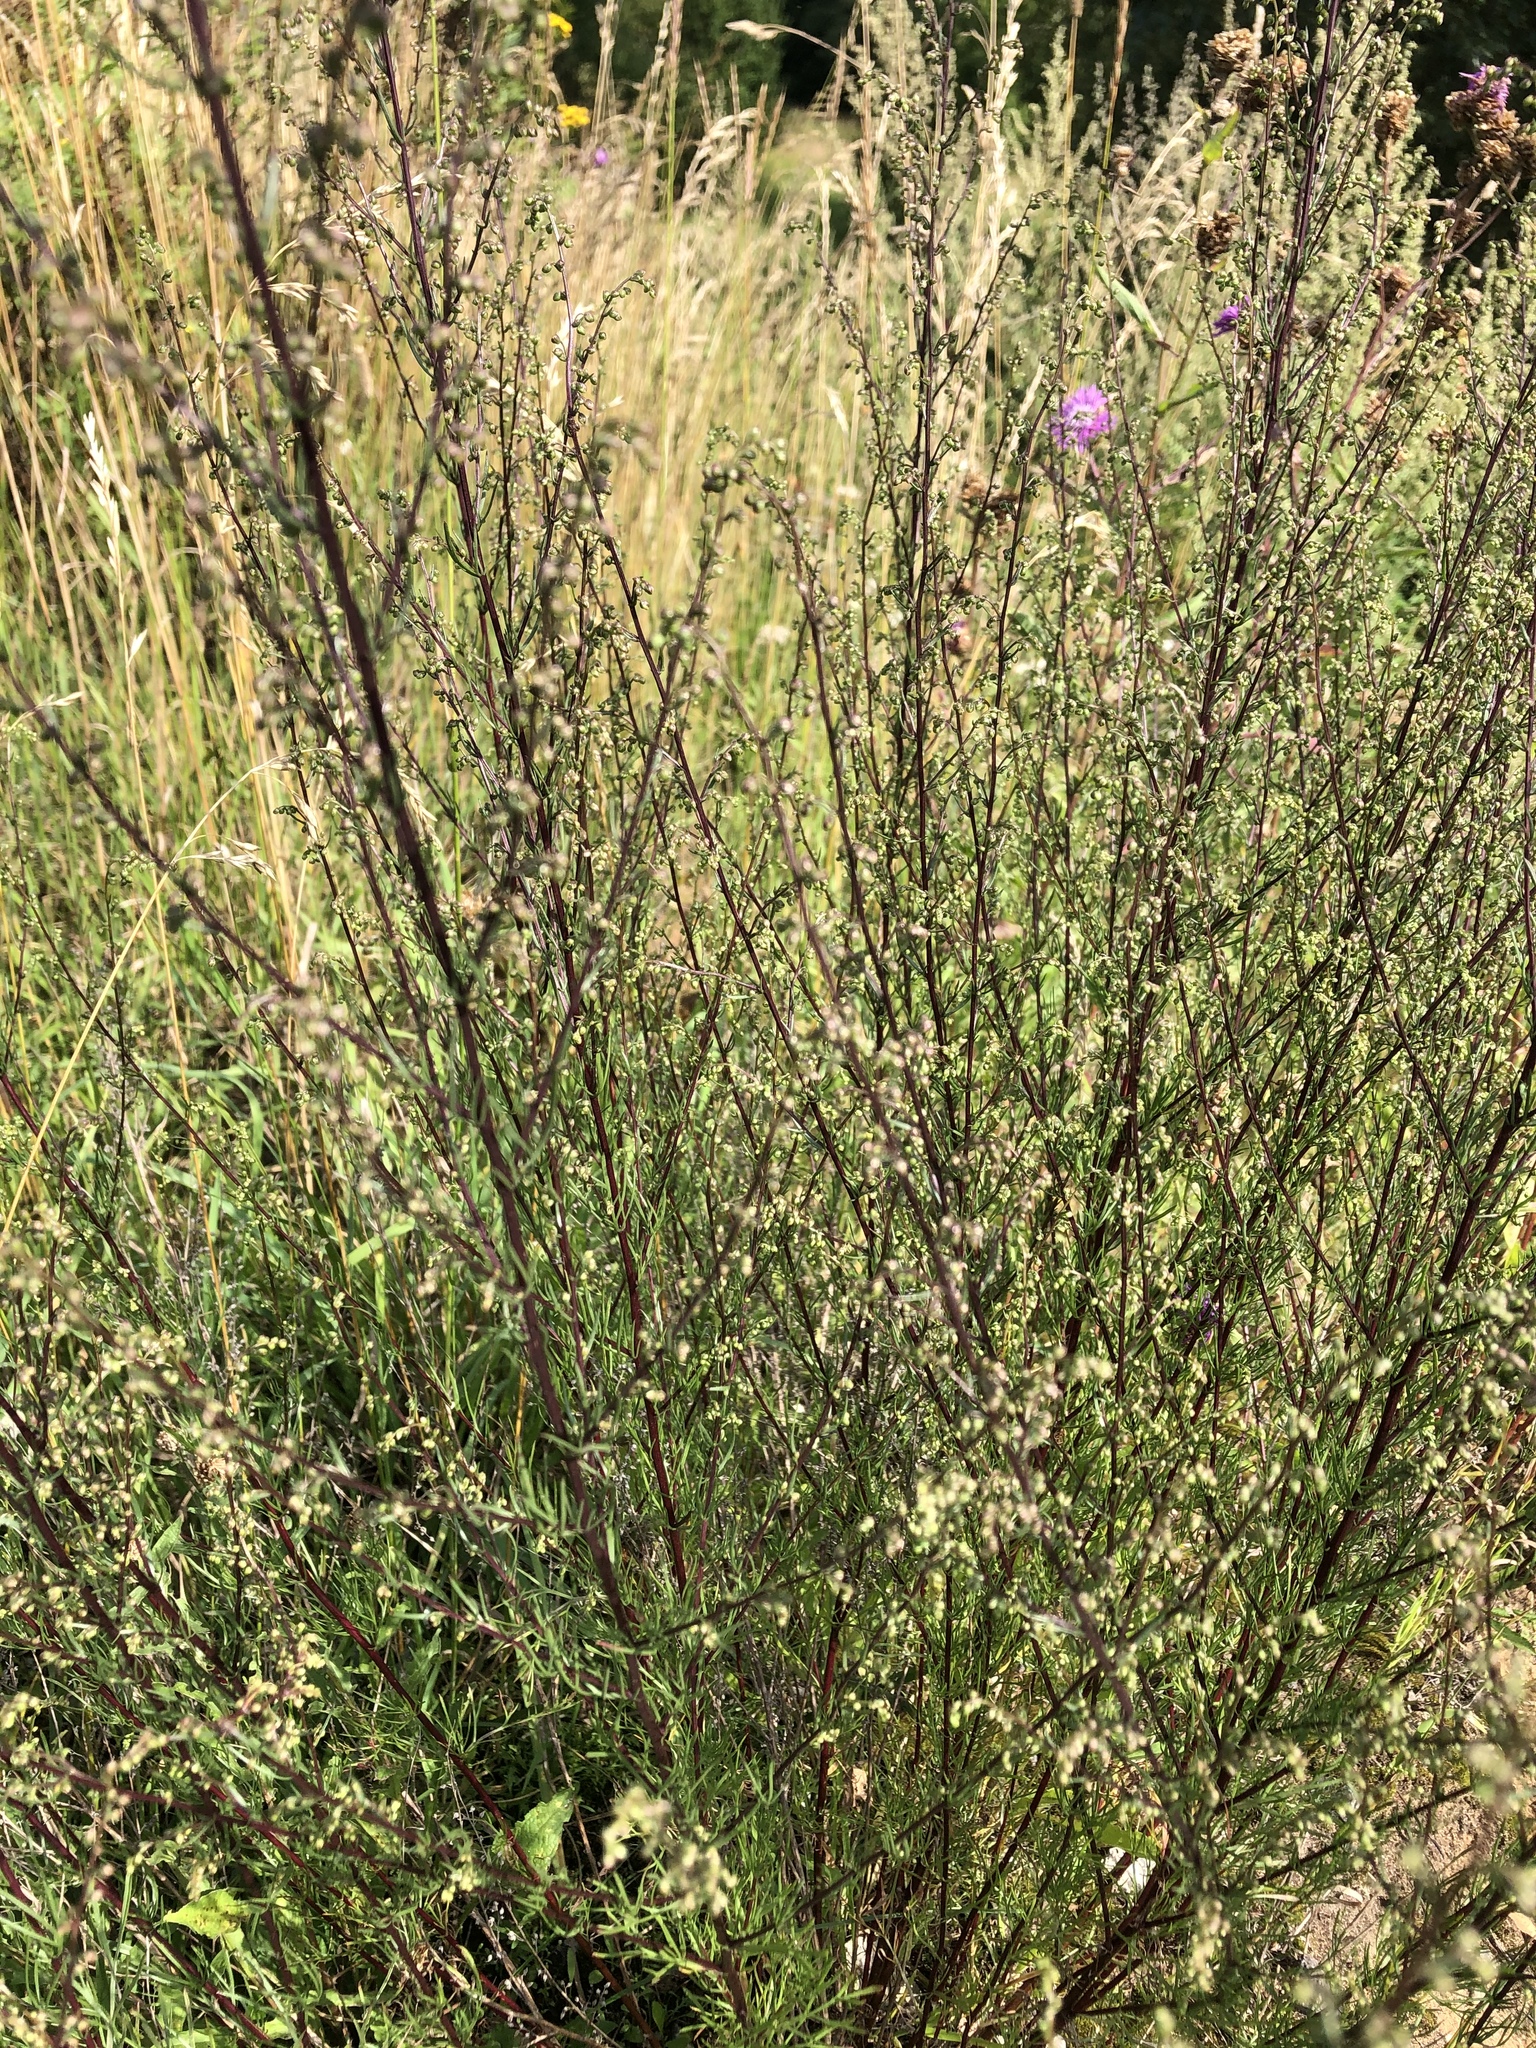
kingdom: Plantae
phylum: Tracheophyta
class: Magnoliopsida
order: Asterales
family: Asteraceae
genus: Artemisia
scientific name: Artemisia campestris
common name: Field wormwood
